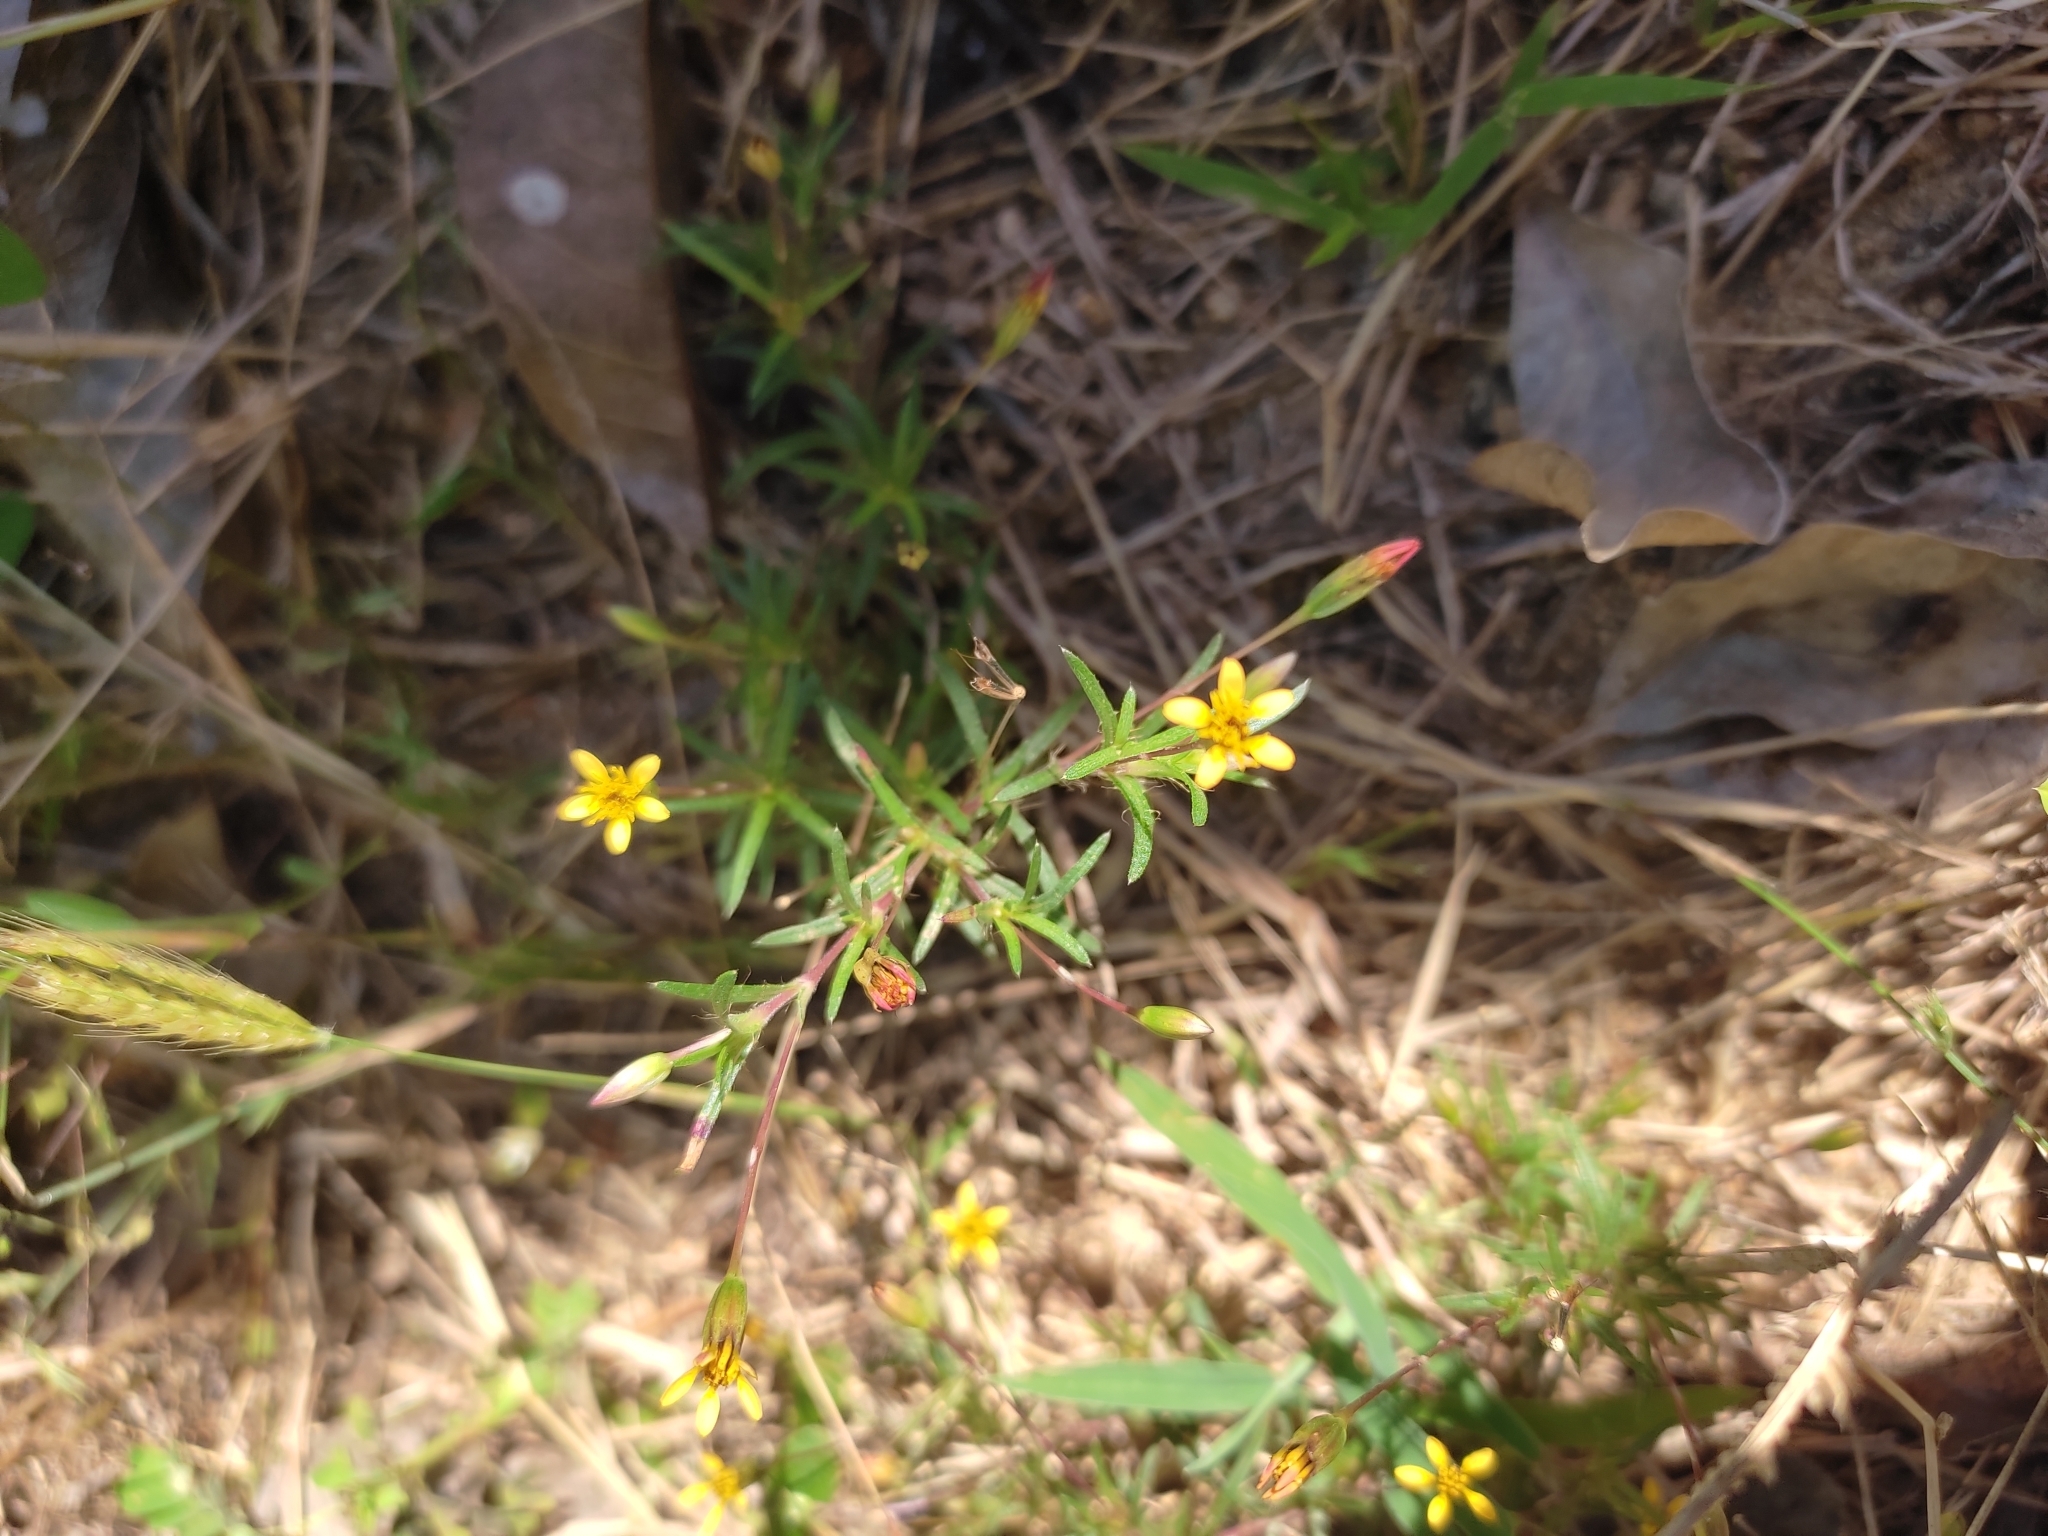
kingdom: Plantae
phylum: Tracheophyta
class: Magnoliopsida
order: Asterales
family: Asteraceae
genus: Pectis
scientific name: Pectis elongata
